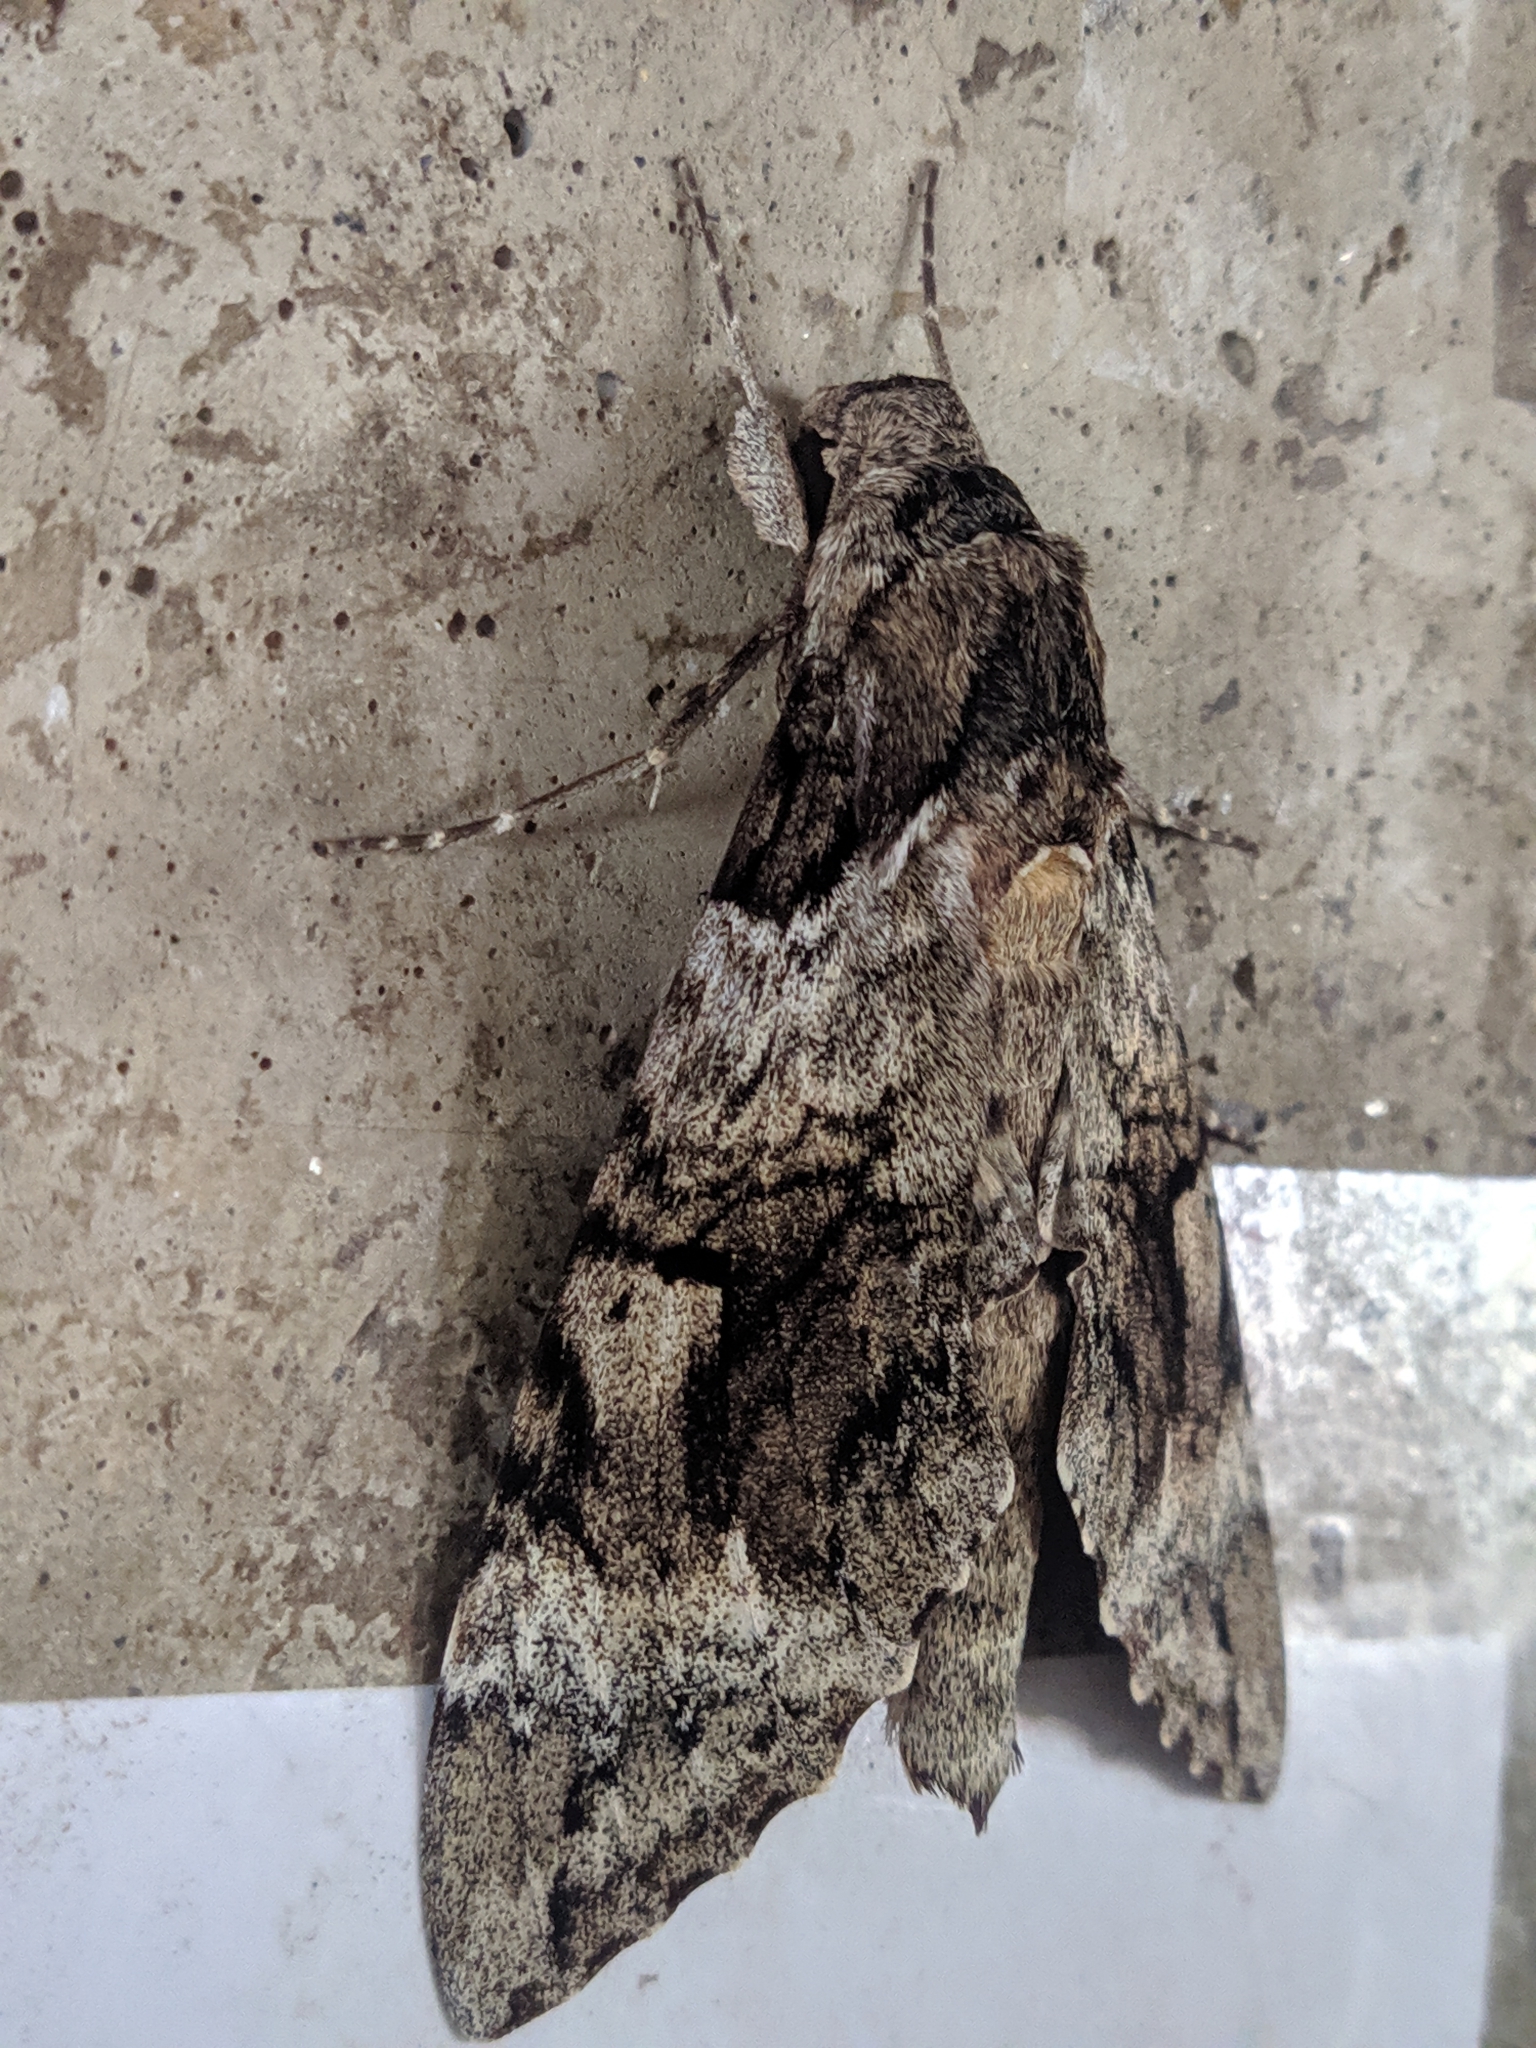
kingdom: Animalia
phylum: Arthropoda
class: Insecta
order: Lepidoptera
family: Sphingidae
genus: Pseudosphinx
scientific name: Pseudosphinx tetrio
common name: Tetrio sphinx
